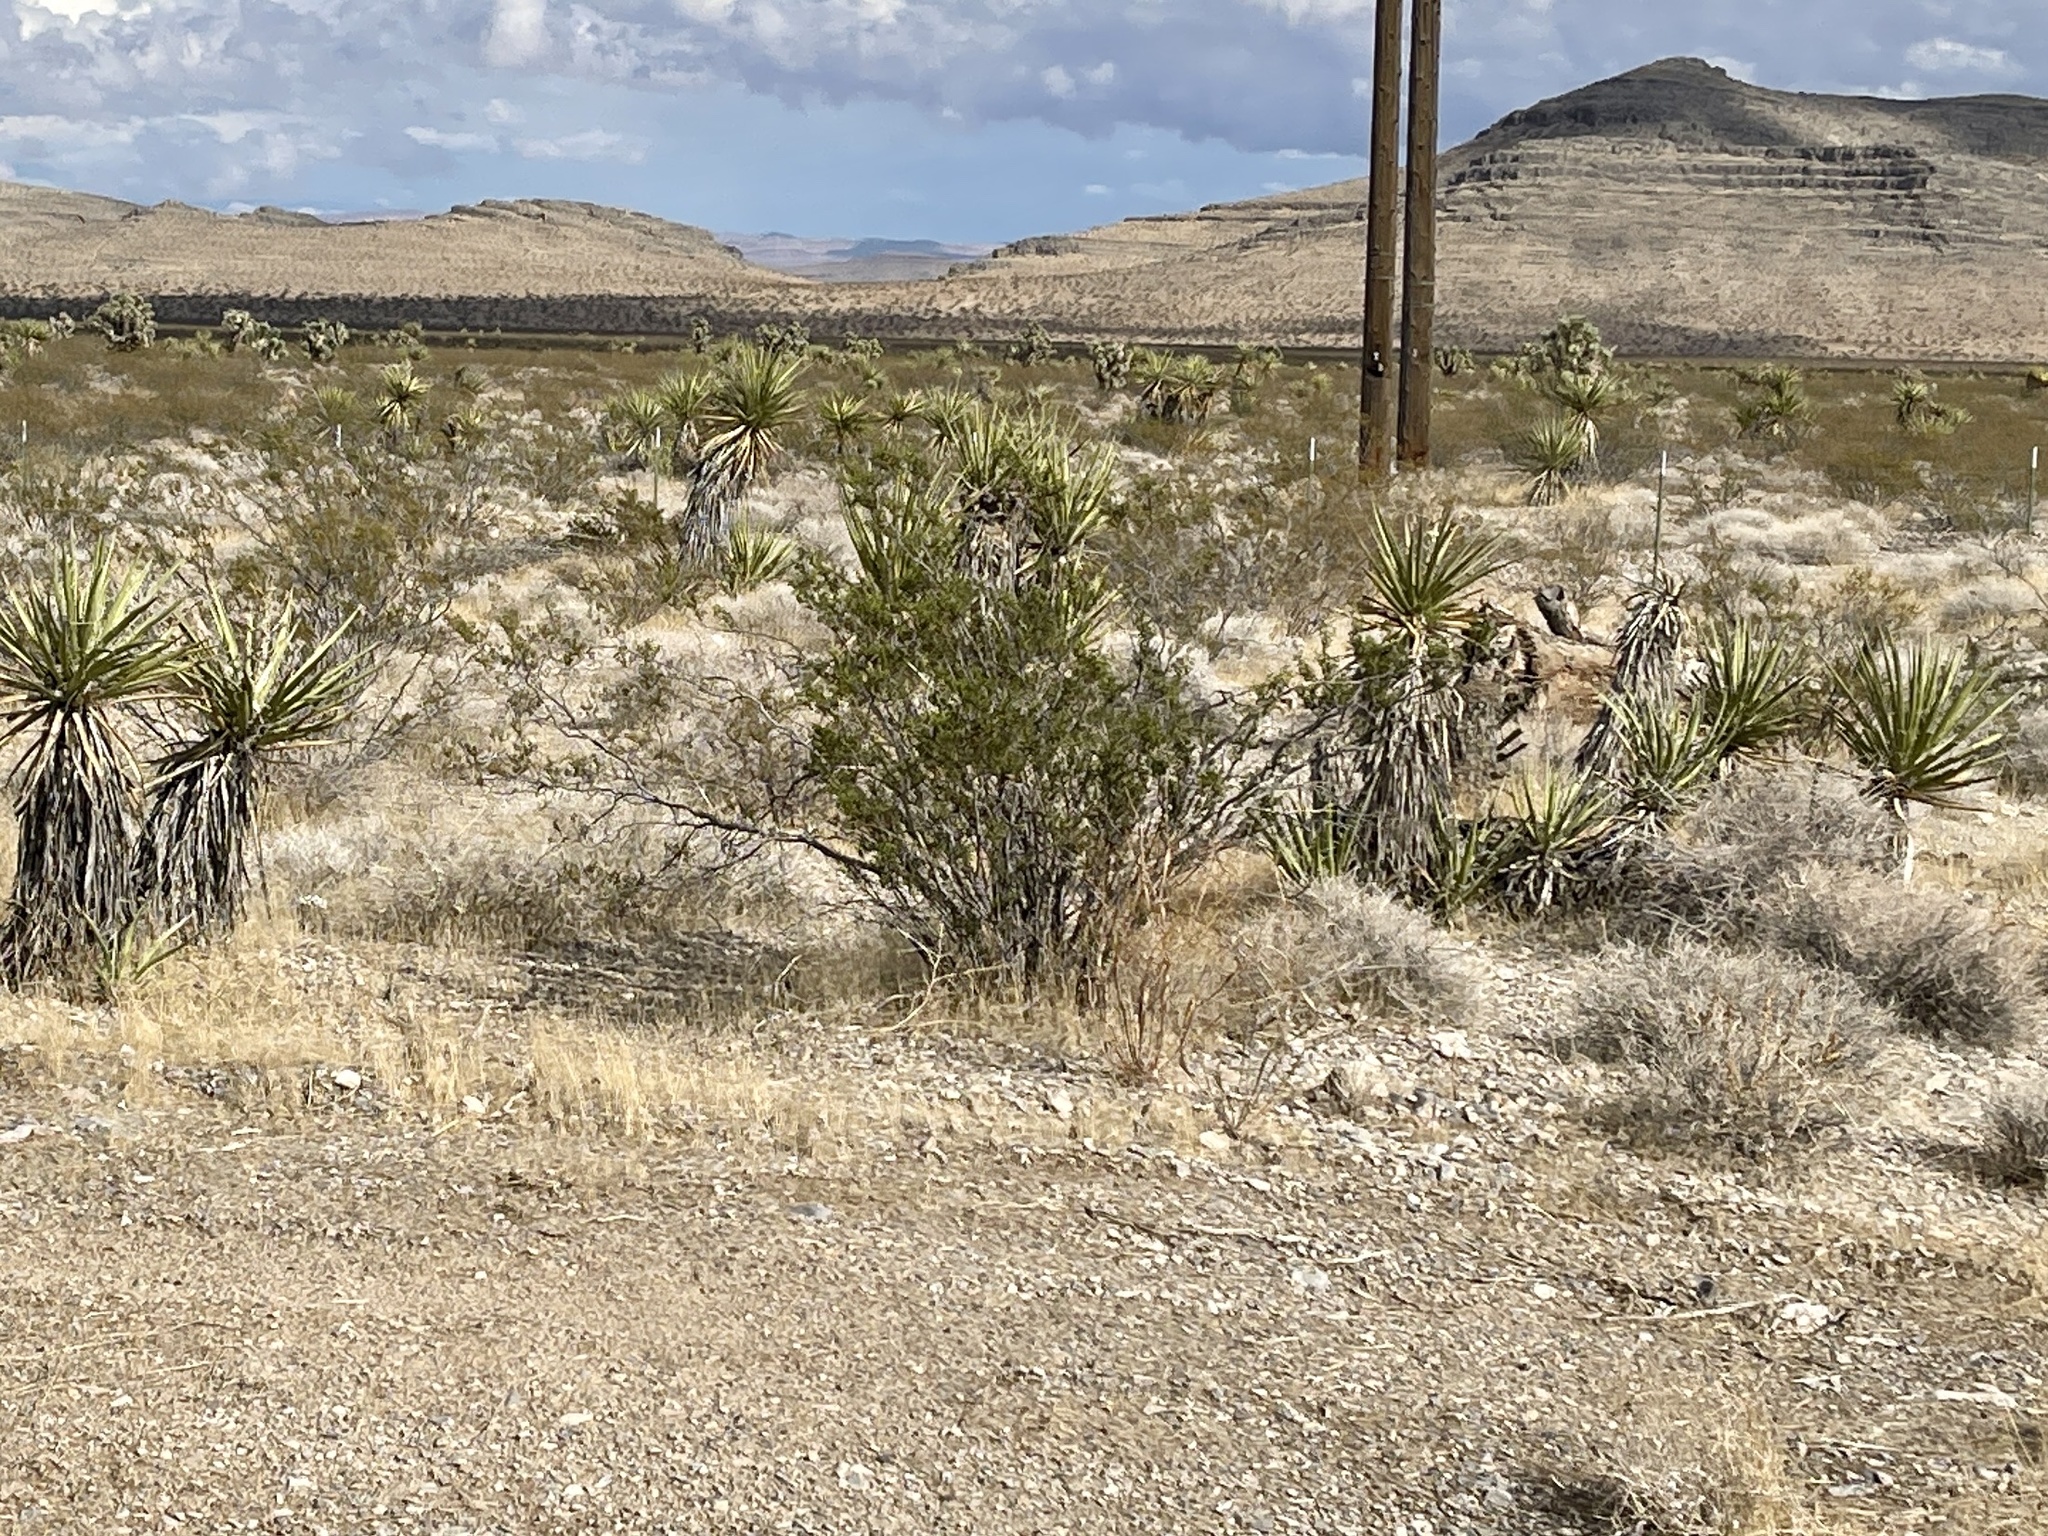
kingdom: Plantae
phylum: Tracheophyta
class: Magnoliopsida
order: Zygophyllales
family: Zygophyllaceae
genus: Larrea
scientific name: Larrea tridentata
